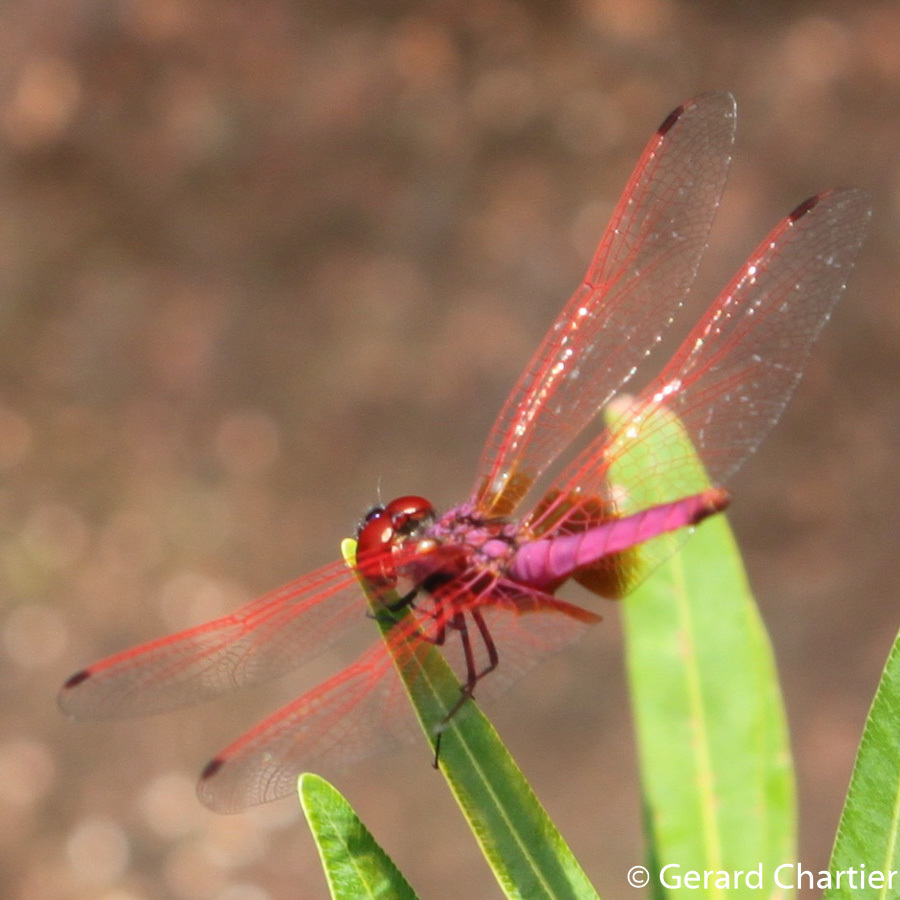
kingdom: Animalia
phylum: Arthropoda
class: Insecta
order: Odonata
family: Libellulidae
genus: Trithemis
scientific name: Trithemis aurora
